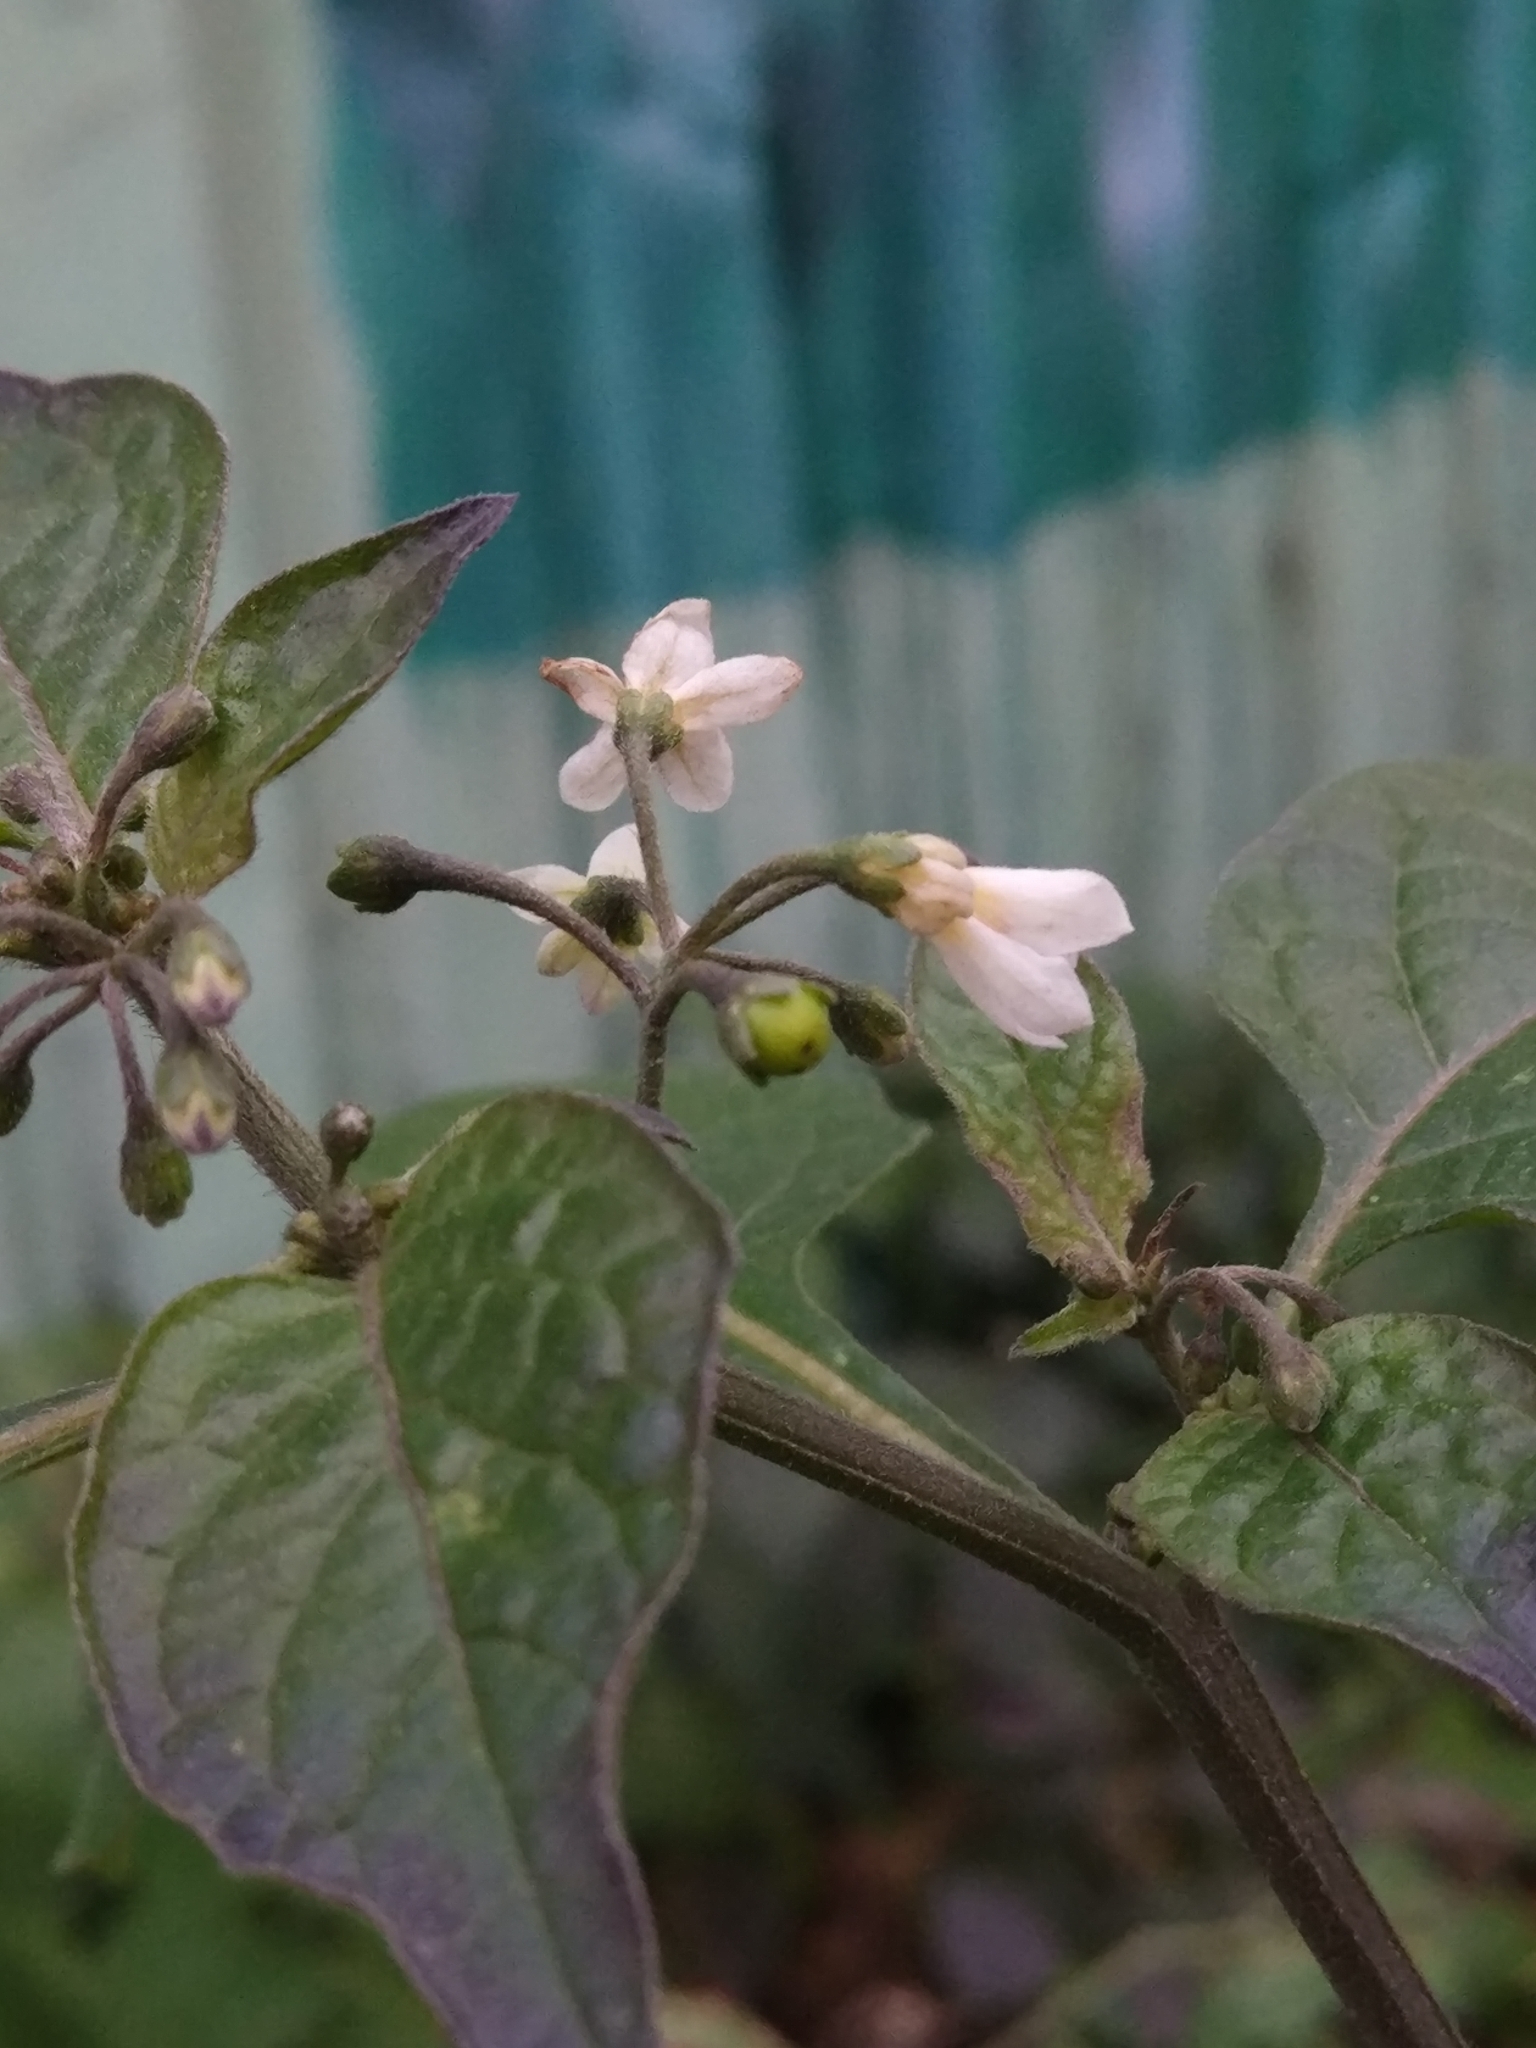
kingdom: Plantae
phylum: Tracheophyta
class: Magnoliopsida
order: Solanales
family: Solanaceae
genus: Solanum
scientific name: Solanum nigrum
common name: Black nightshade
